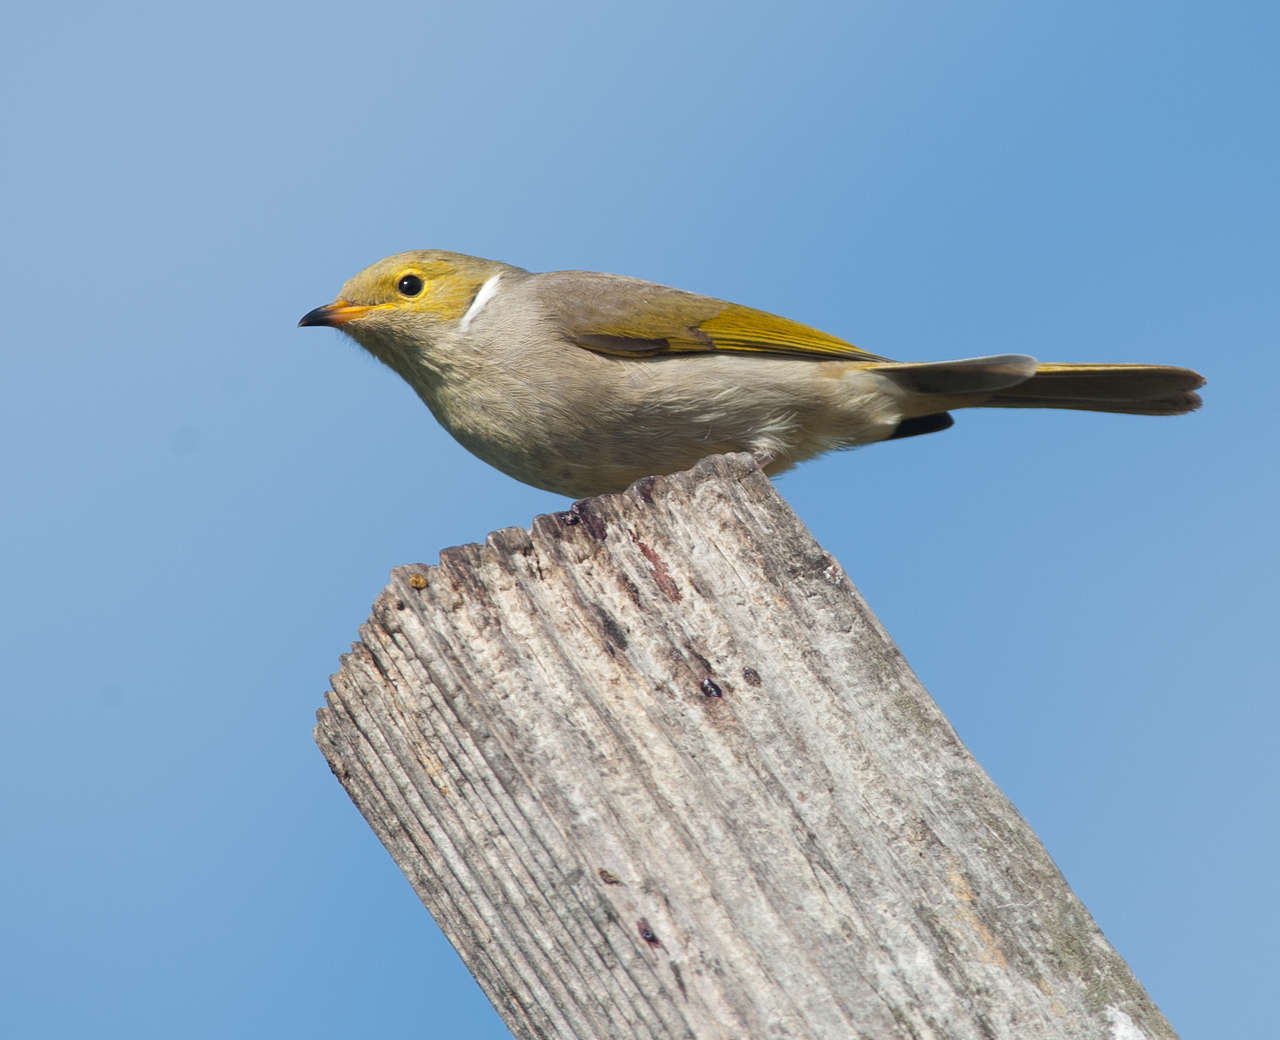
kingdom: Animalia
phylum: Chordata
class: Aves
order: Passeriformes
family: Meliphagidae
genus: Ptilotula
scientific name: Ptilotula penicillata
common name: White-plumed honeyeater
